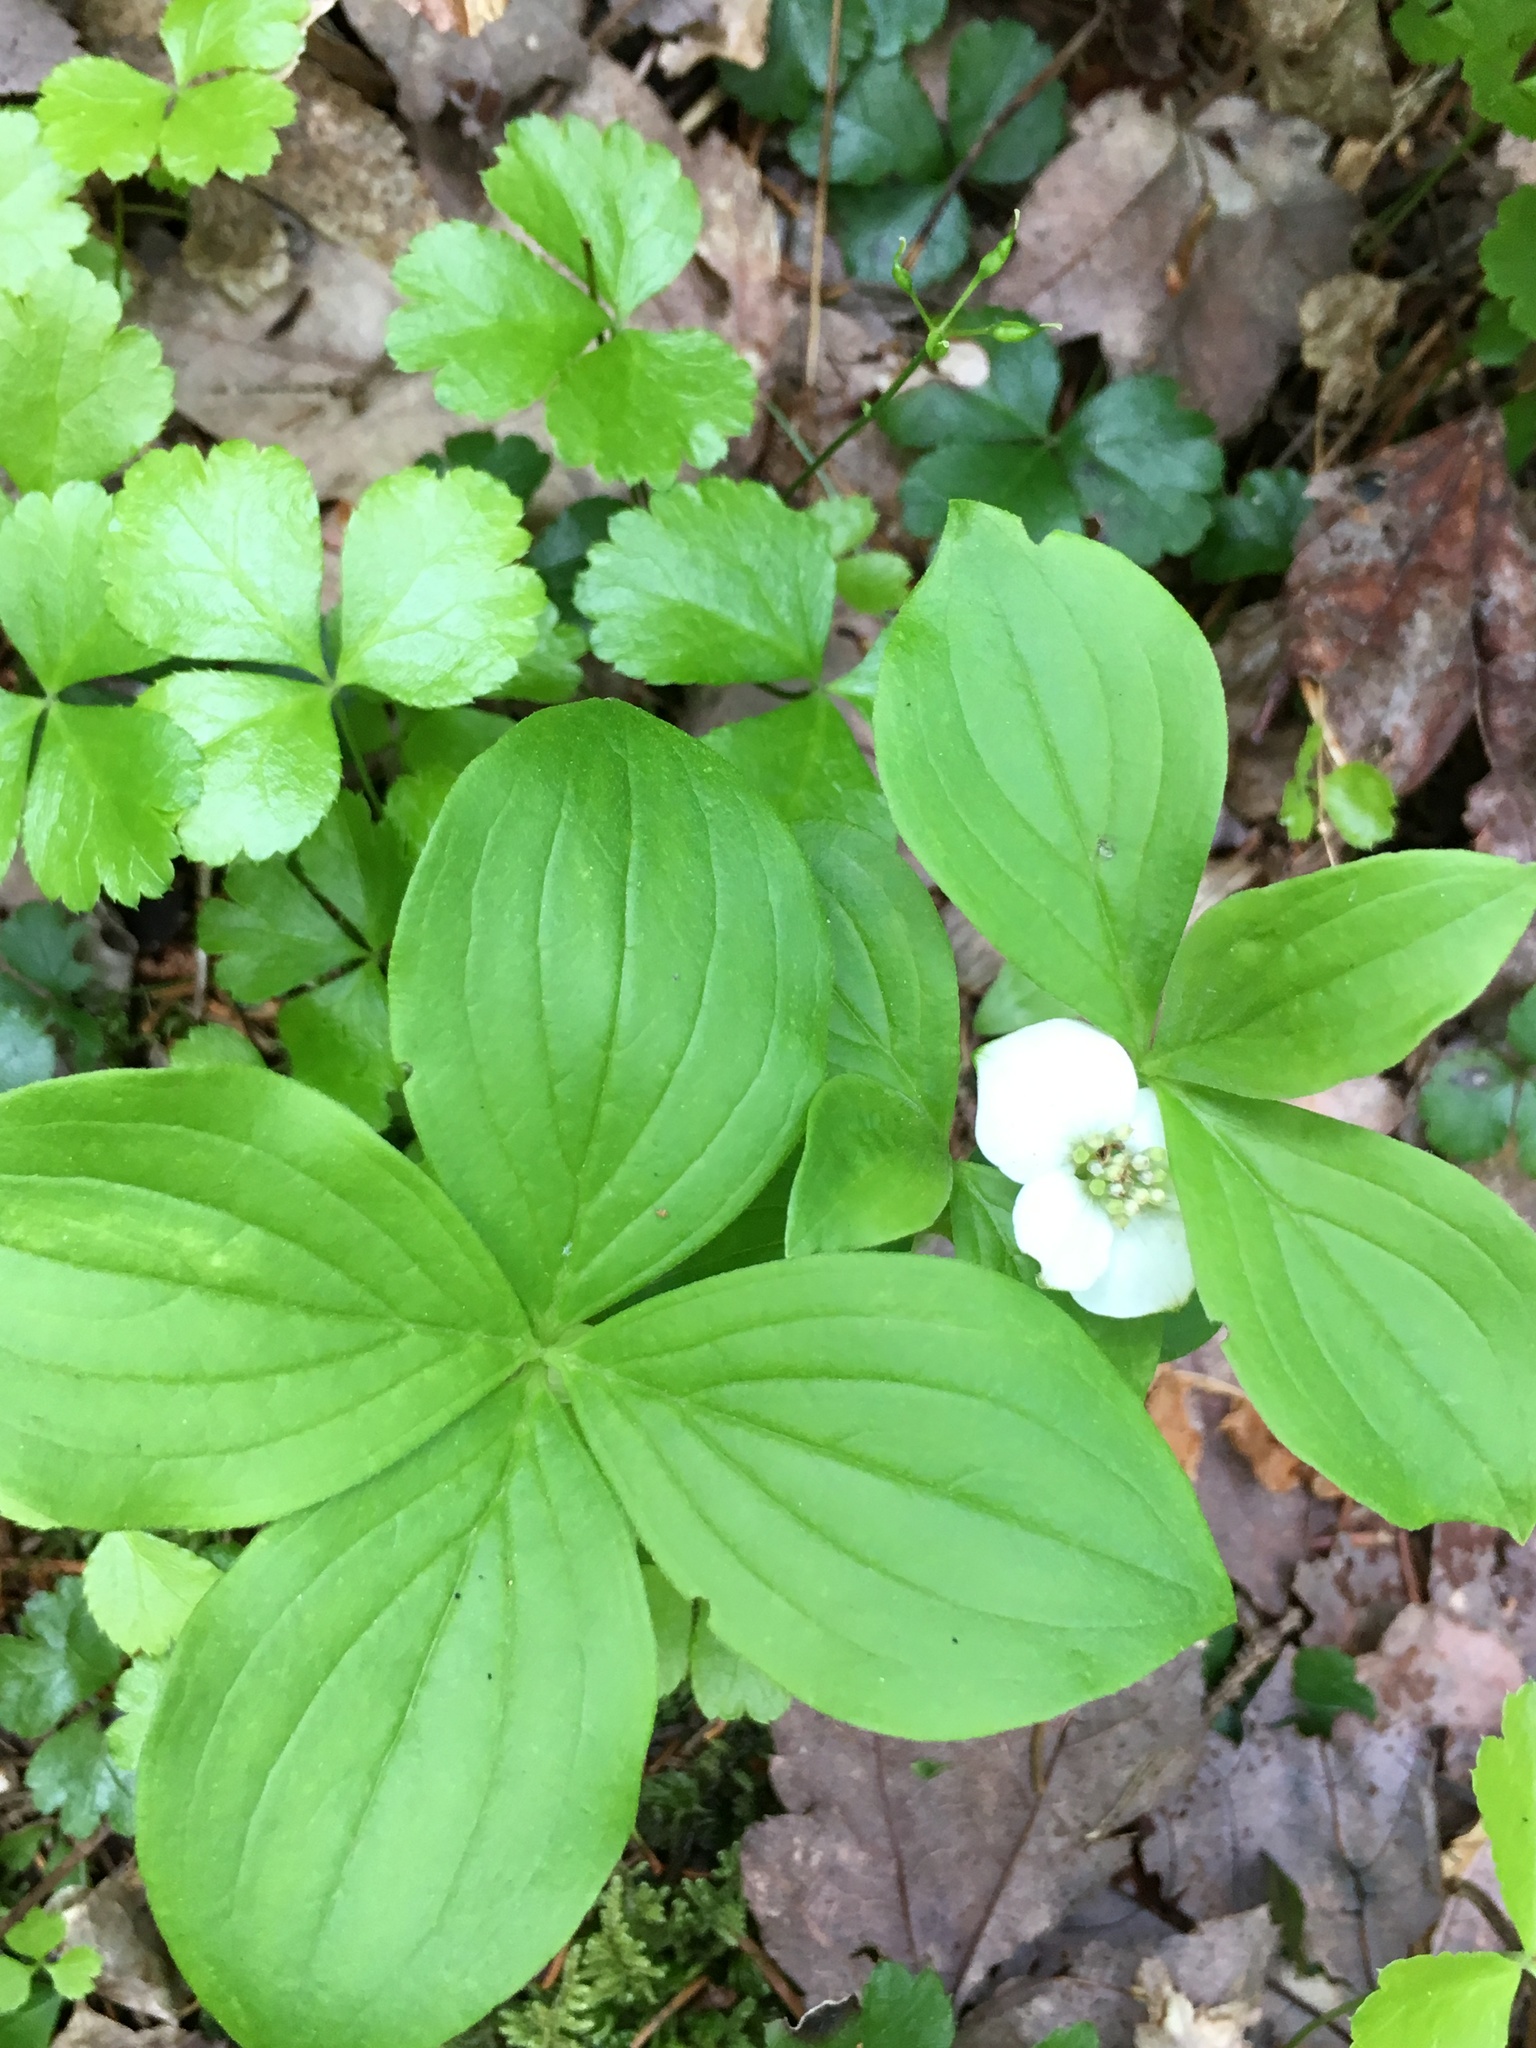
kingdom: Plantae
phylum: Tracheophyta
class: Magnoliopsida
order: Cornales
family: Cornaceae
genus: Cornus
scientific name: Cornus canadensis
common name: Creeping dogwood
